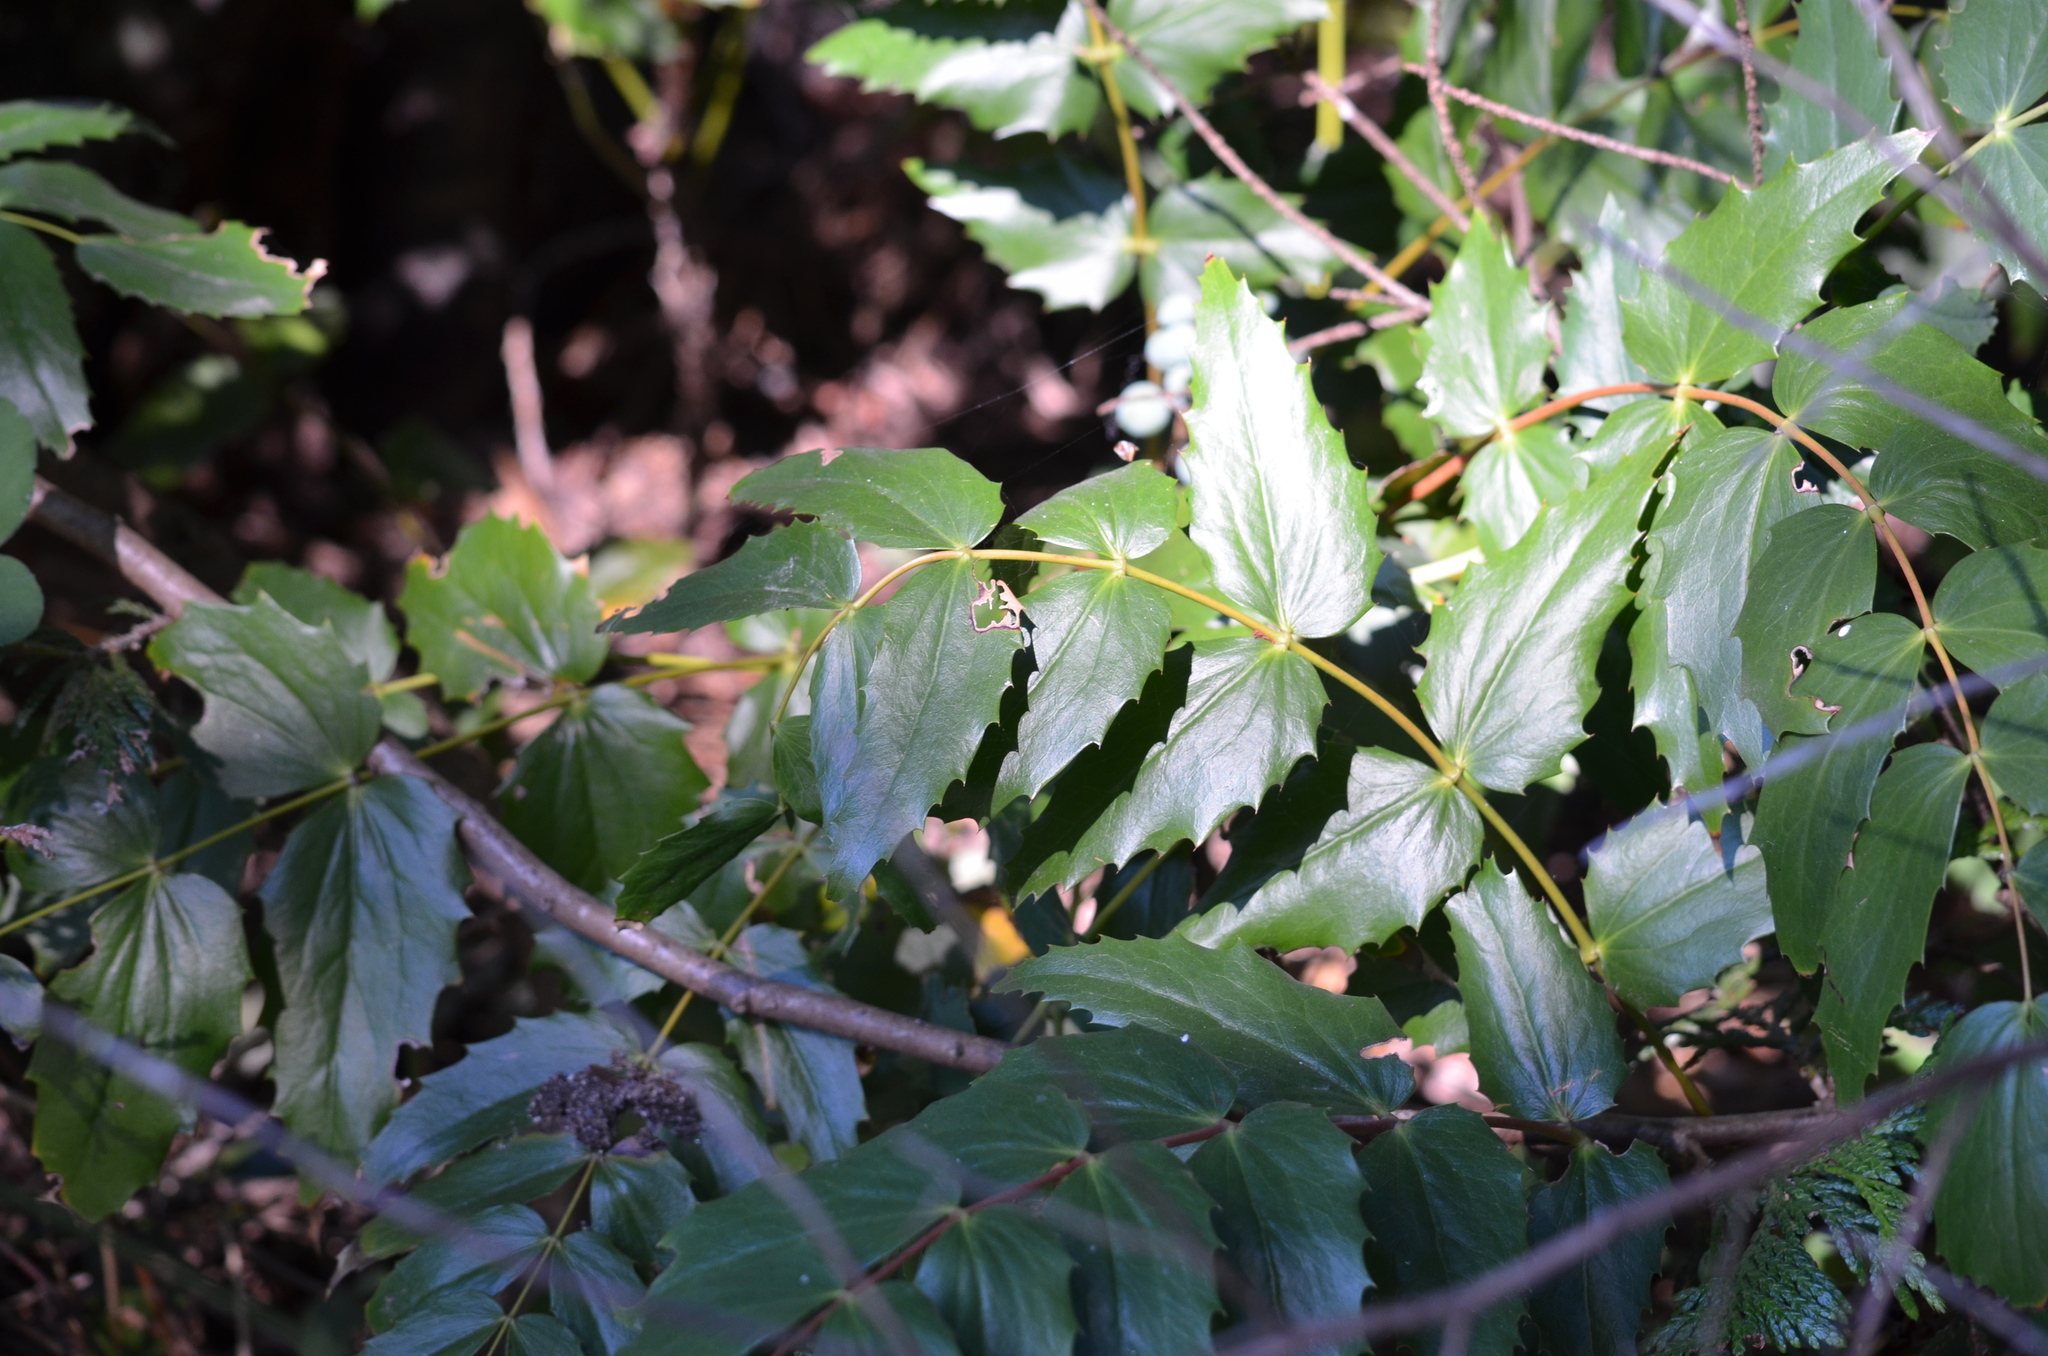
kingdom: Plantae
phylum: Tracheophyta
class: Magnoliopsida
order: Ranunculales
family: Berberidaceae
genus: Mahonia
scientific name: Mahonia nervosa
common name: Cascade oregon-grape
